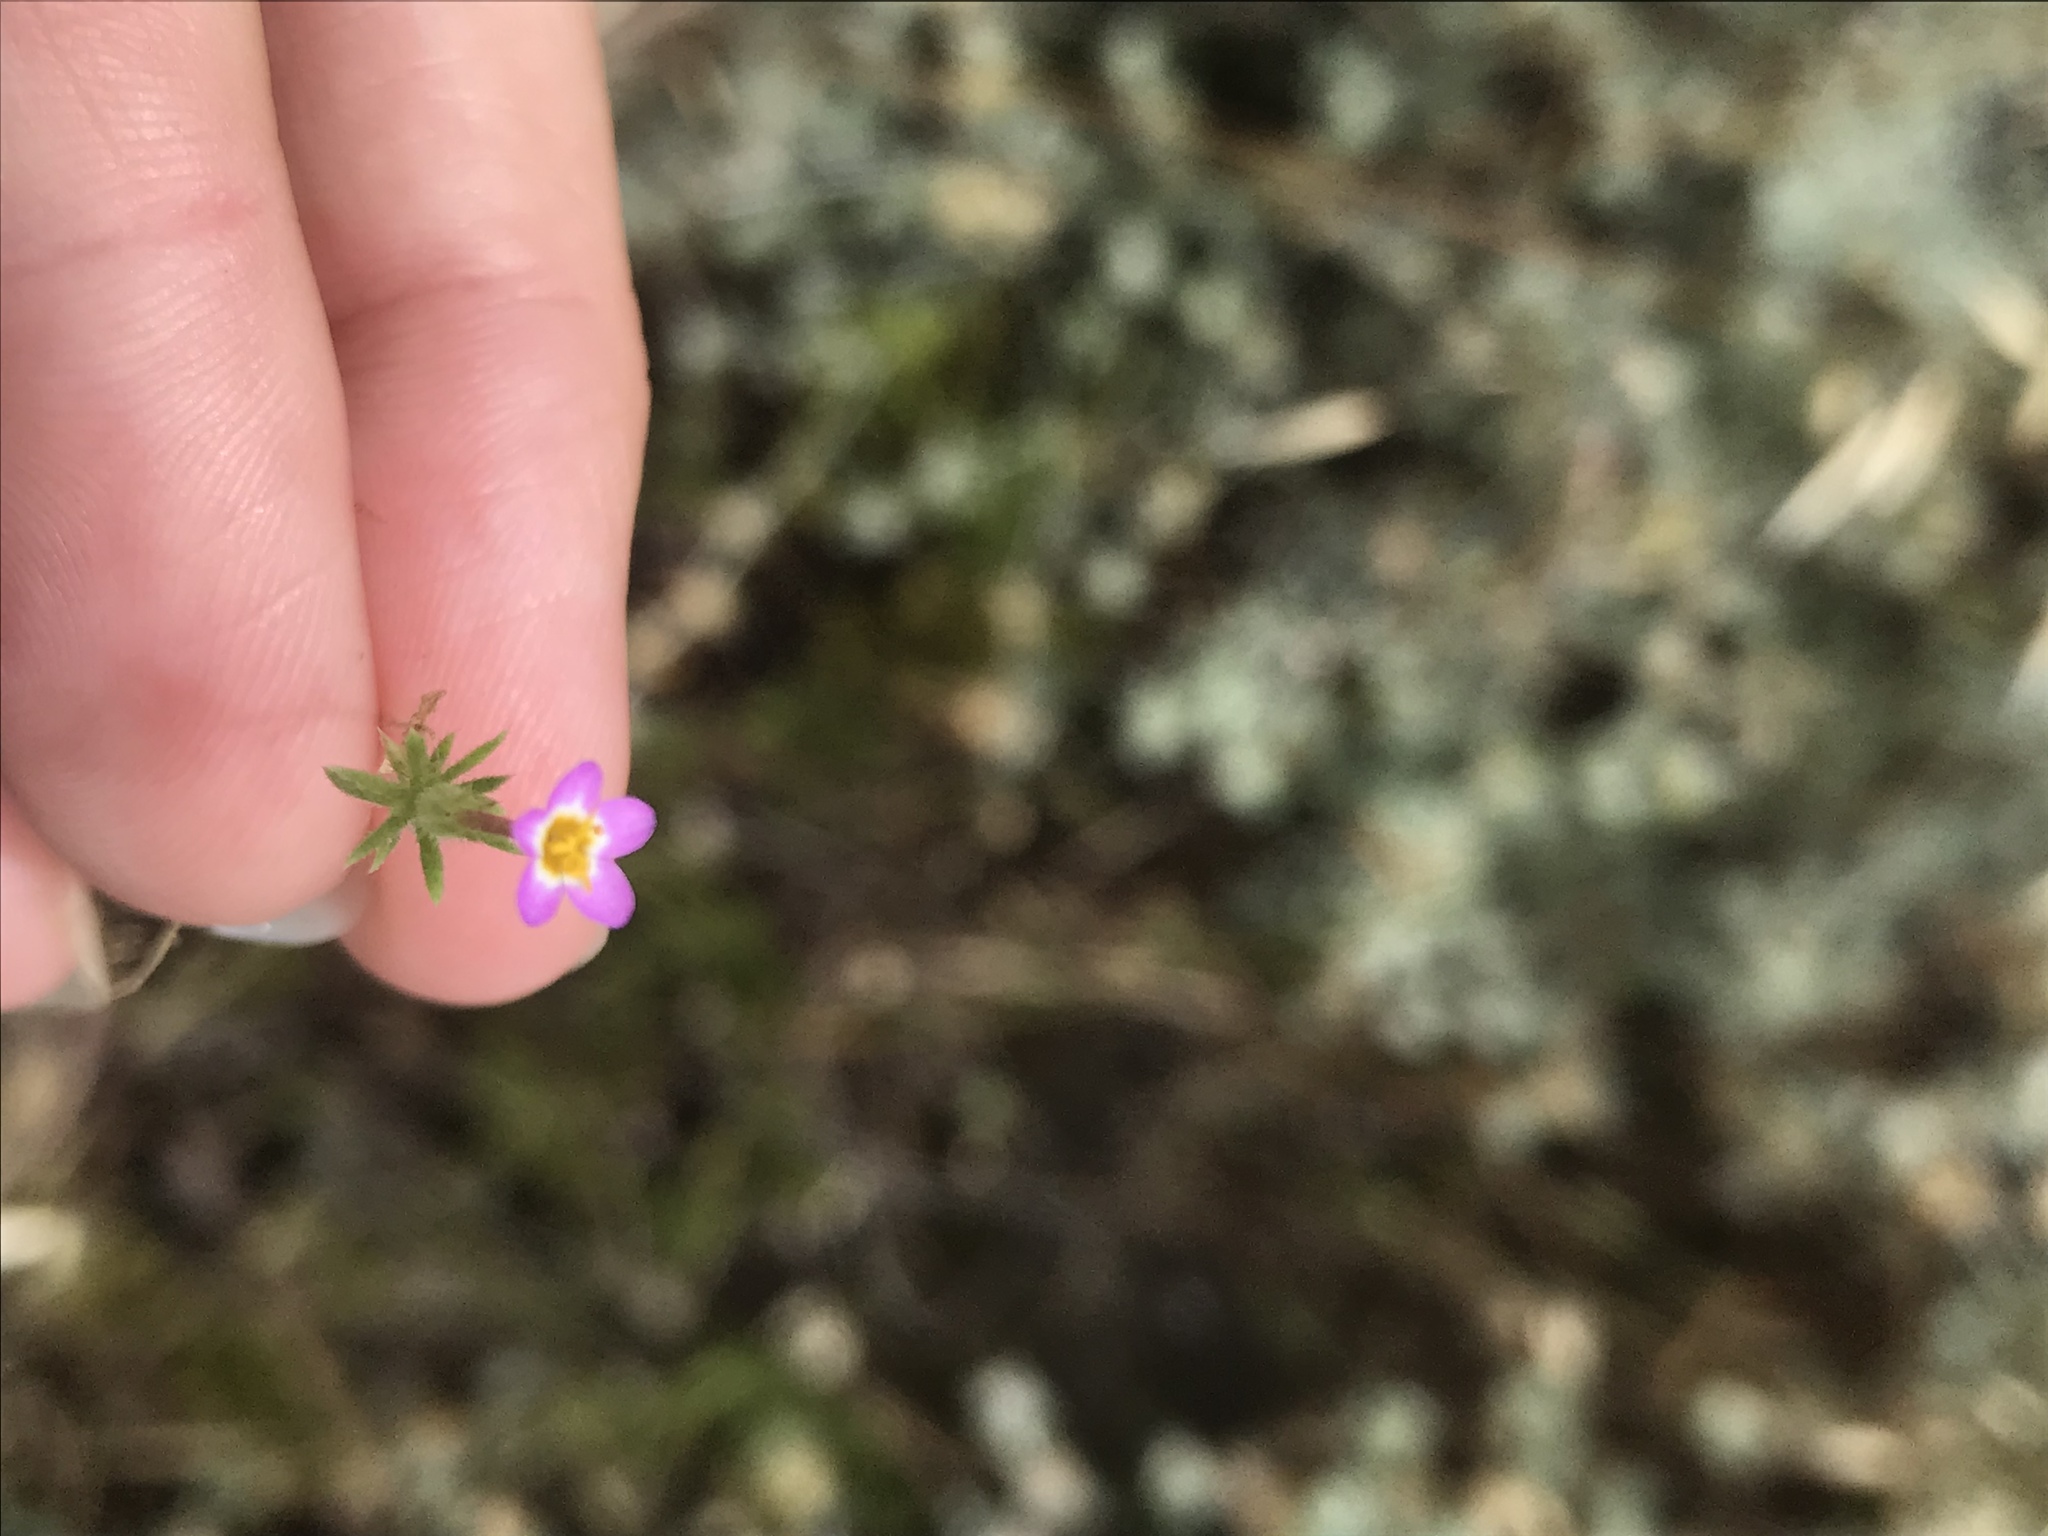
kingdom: Plantae
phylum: Tracheophyta
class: Magnoliopsida
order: Ericales
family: Polemoniaceae
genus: Leptosiphon
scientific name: Leptosiphon bicolor
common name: True babystars
